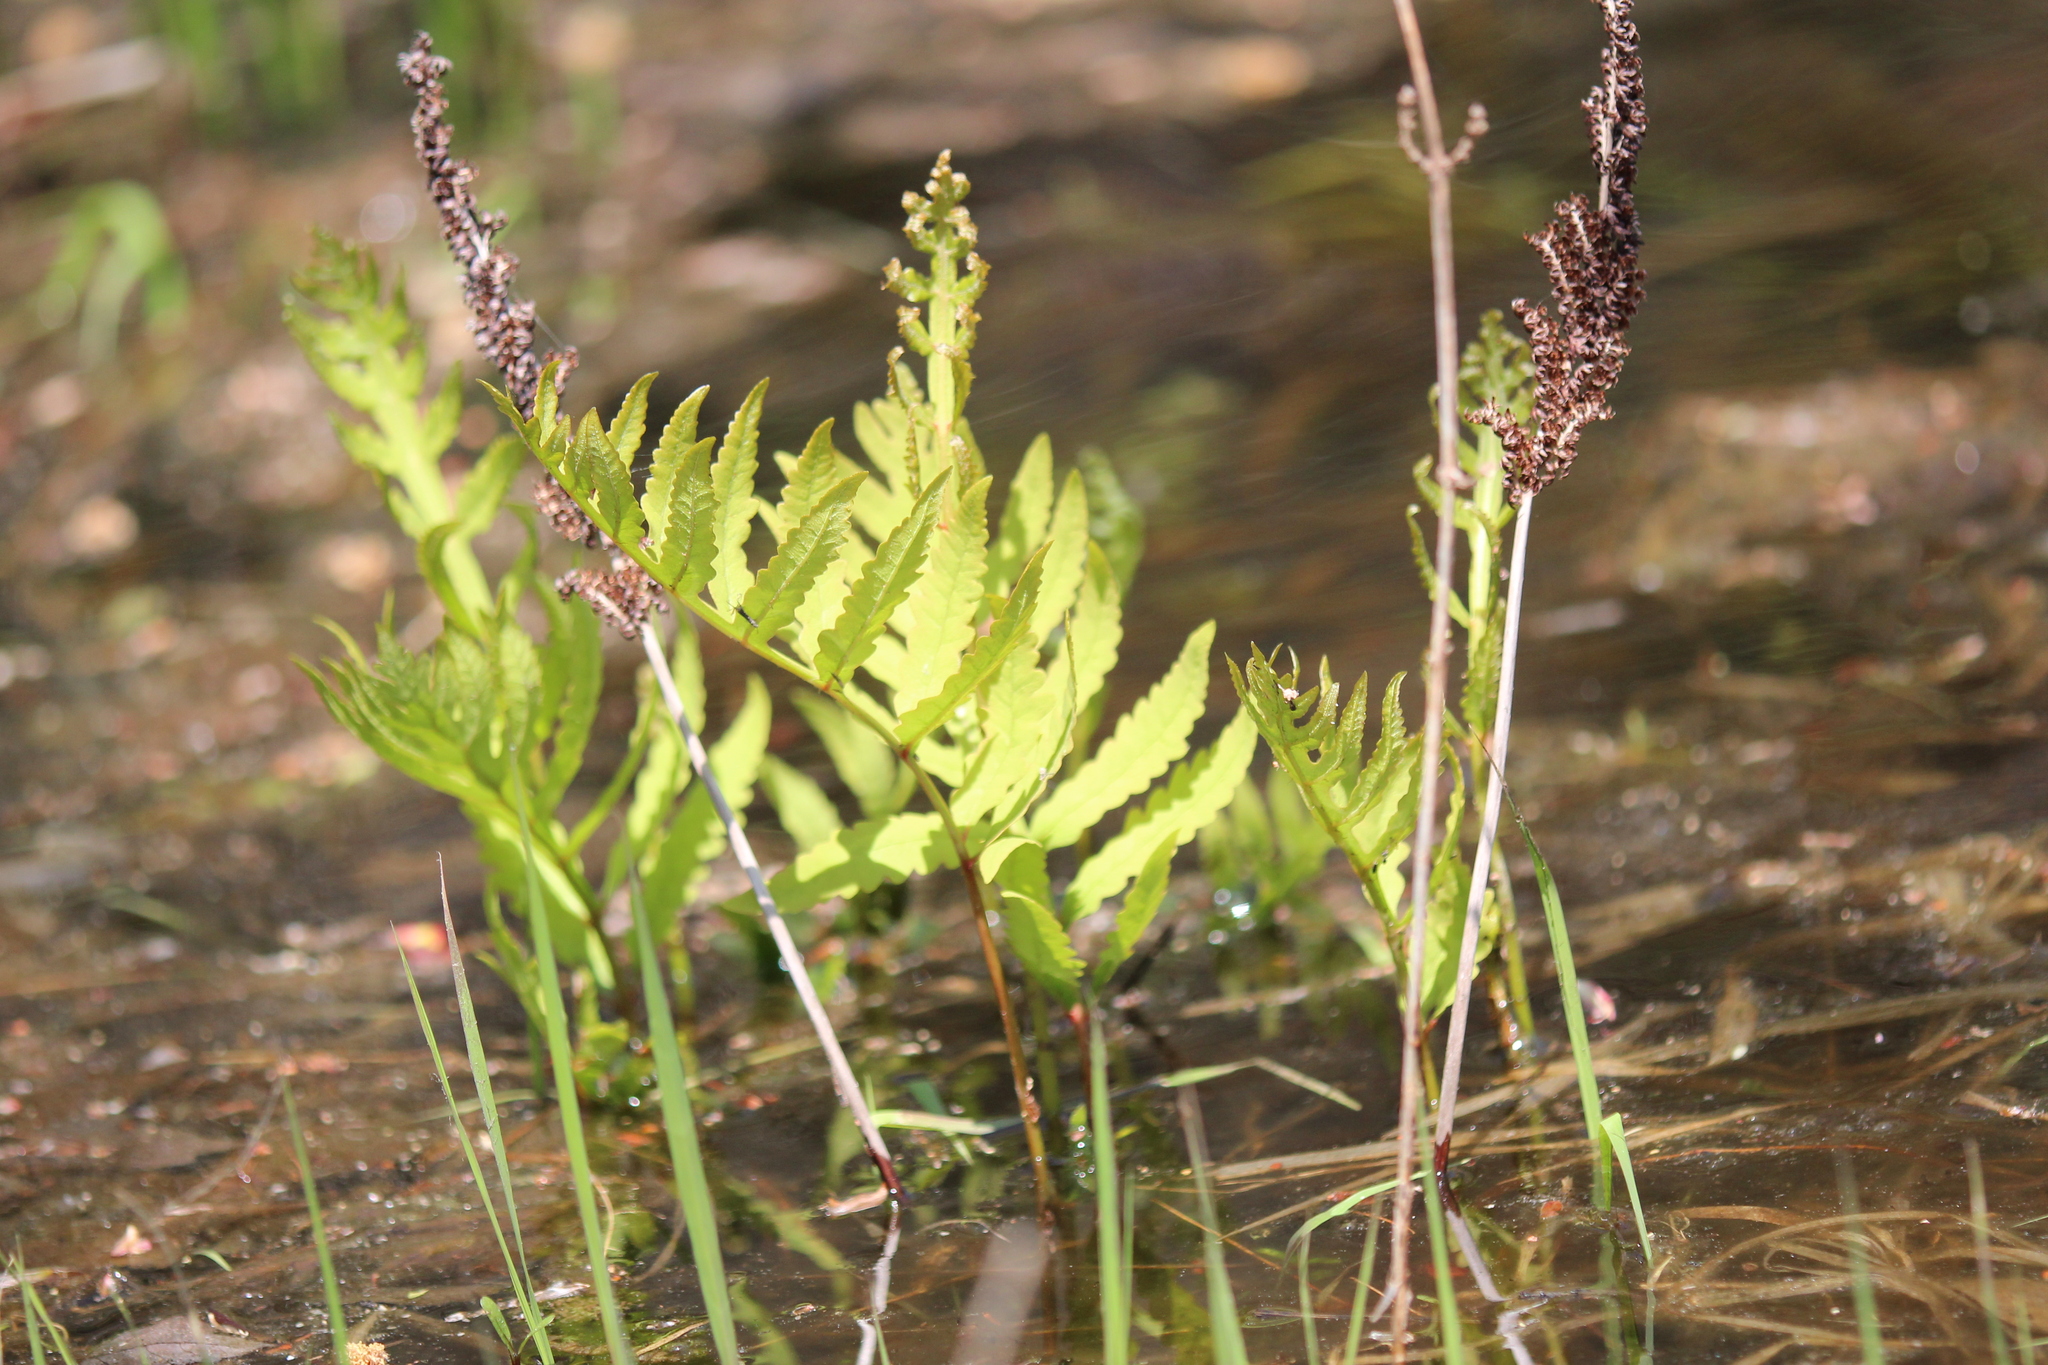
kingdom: Plantae
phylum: Tracheophyta
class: Polypodiopsida
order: Polypodiales
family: Onocleaceae
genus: Onoclea
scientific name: Onoclea sensibilis
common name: Sensitive fern
